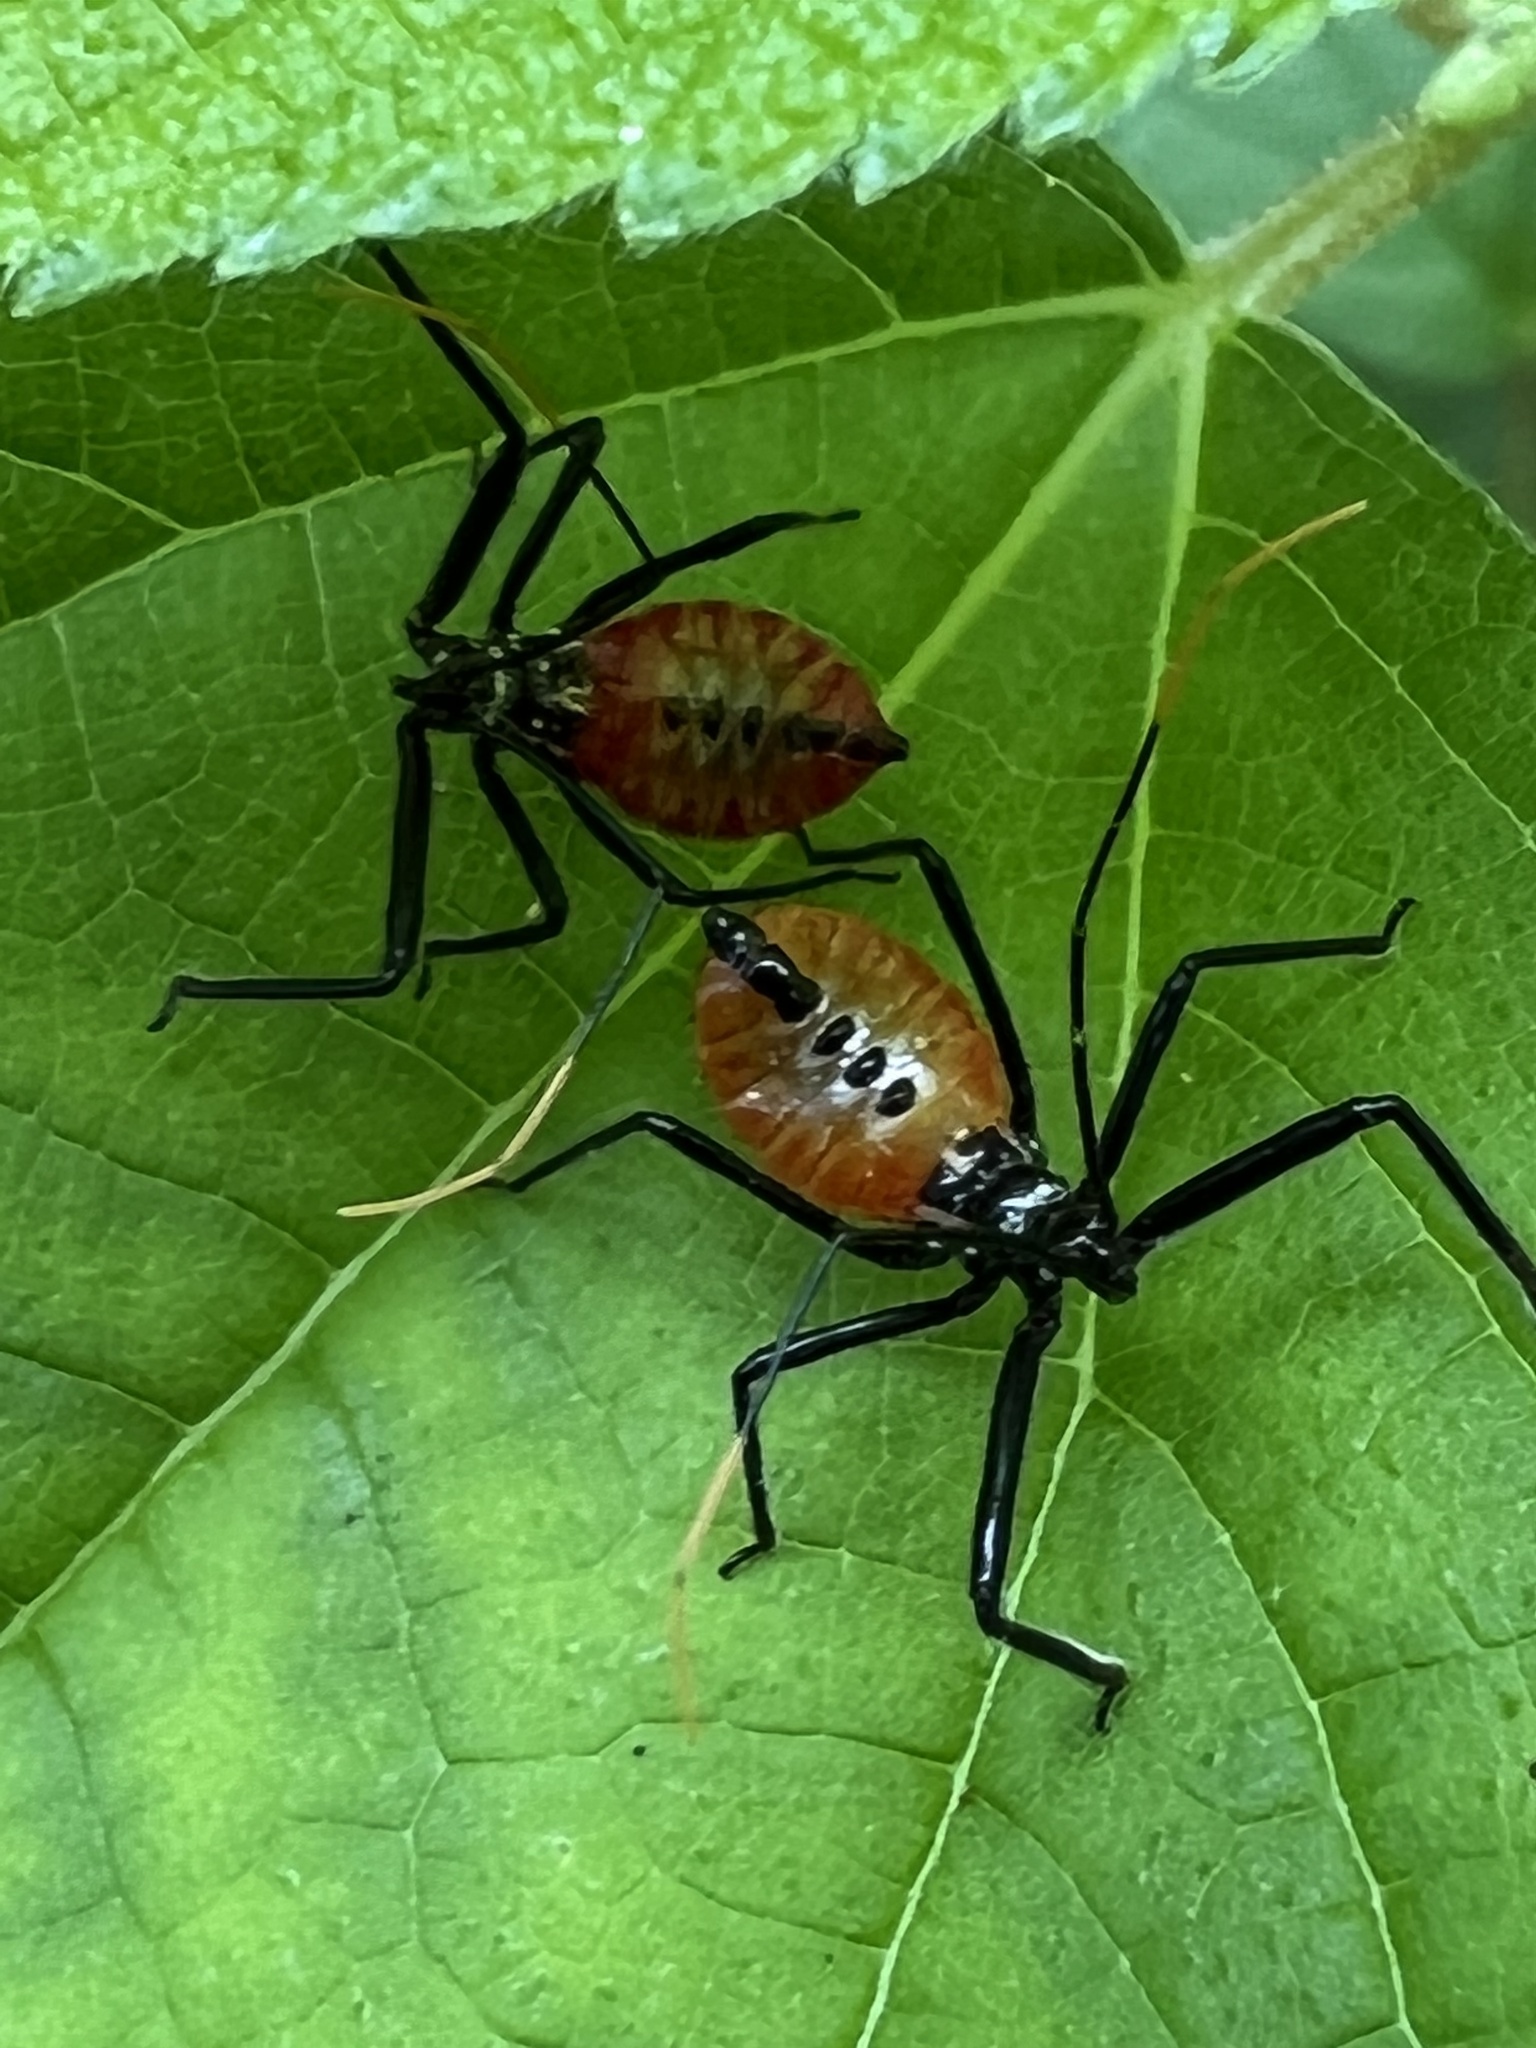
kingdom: Animalia
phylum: Arthropoda
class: Insecta
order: Hemiptera
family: Reduviidae
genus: Arilus
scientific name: Arilus cristatus
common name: North american wheel bug
